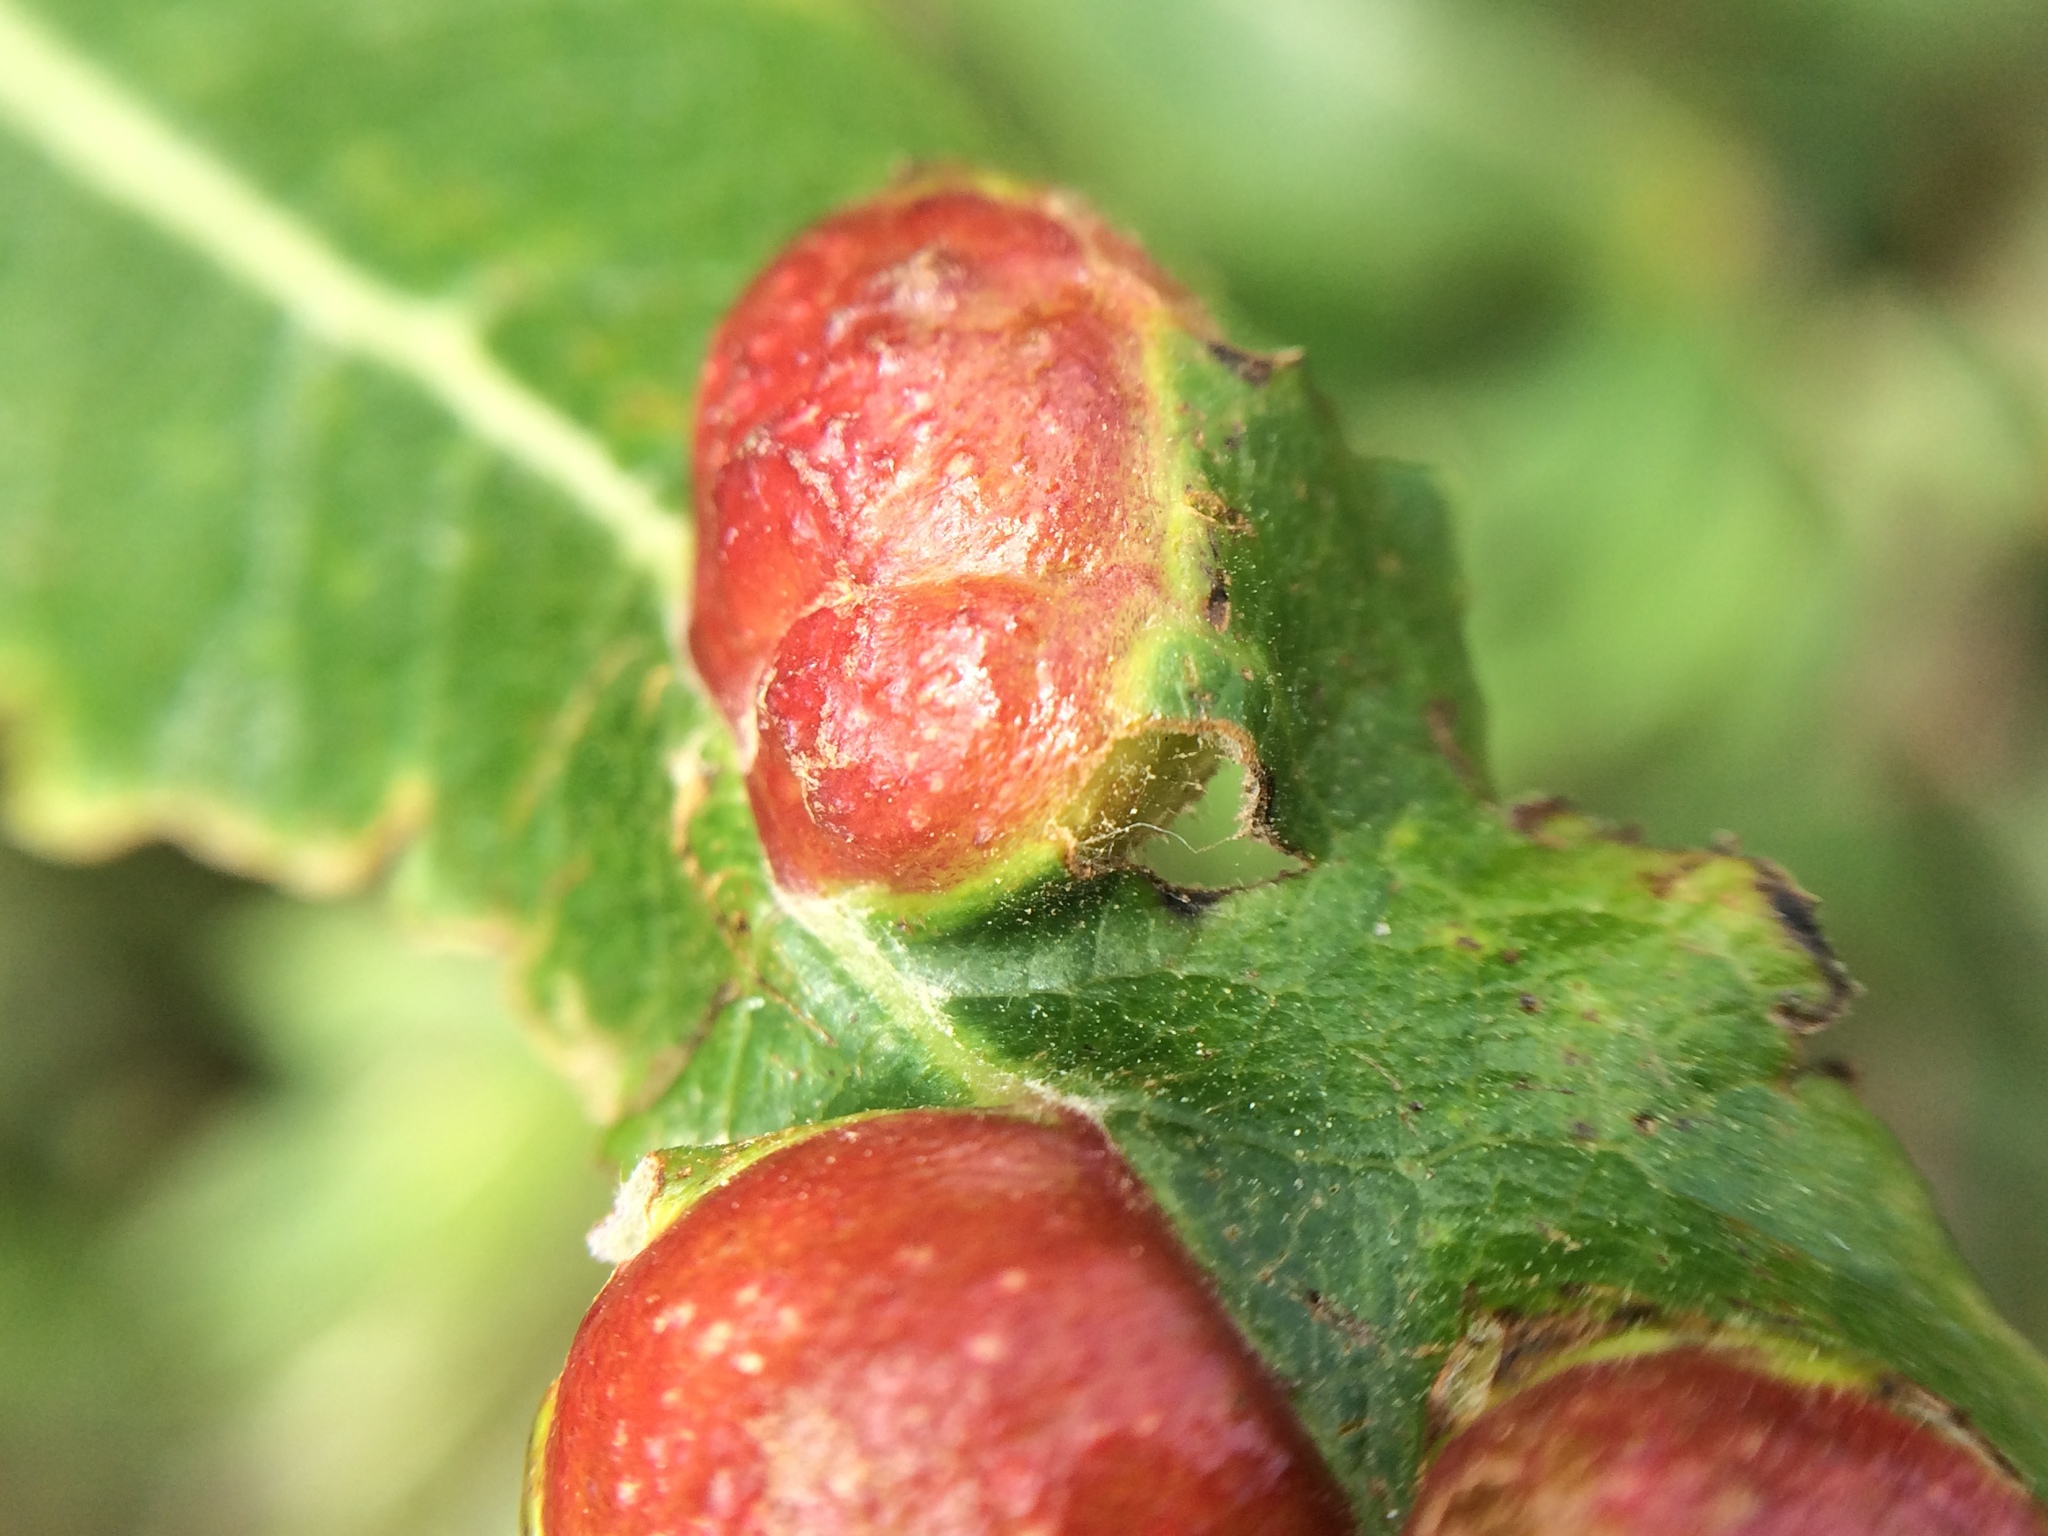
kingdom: Animalia
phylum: Arthropoda
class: Insecta
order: Hymenoptera
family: Tenthredinidae
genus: Euura
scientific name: Euura
